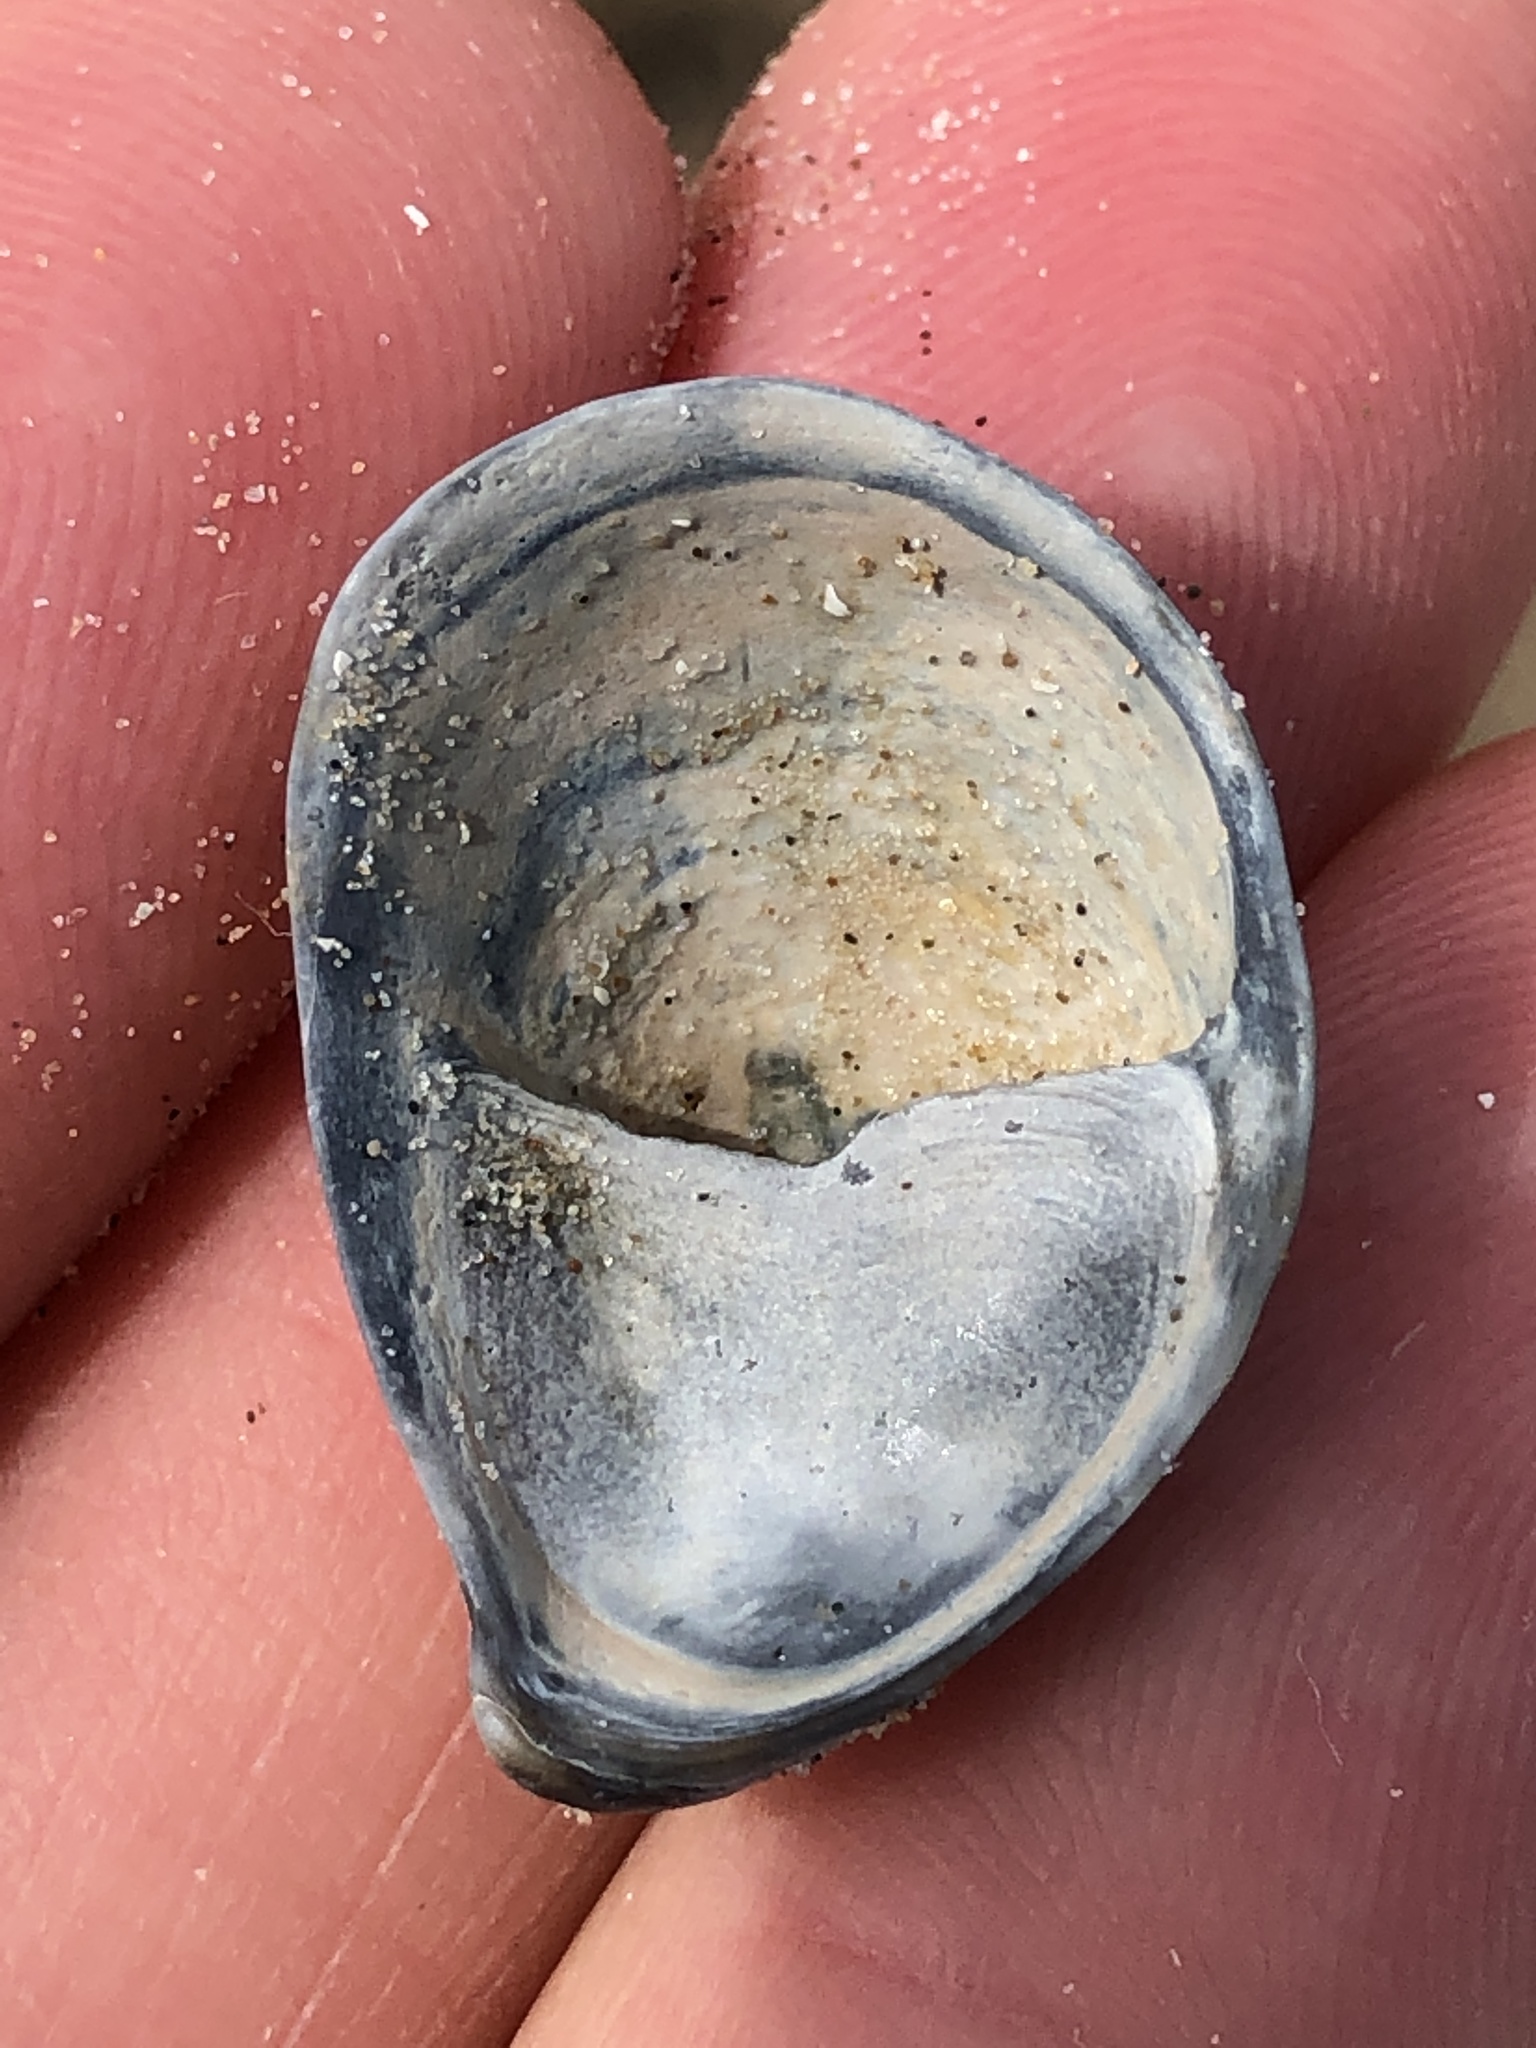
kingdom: Animalia
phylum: Mollusca
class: Gastropoda
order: Littorinimorpha
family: Calyptraeidae
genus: Crepidula
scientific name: Crepidula fornicata
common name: Slipper limpet
